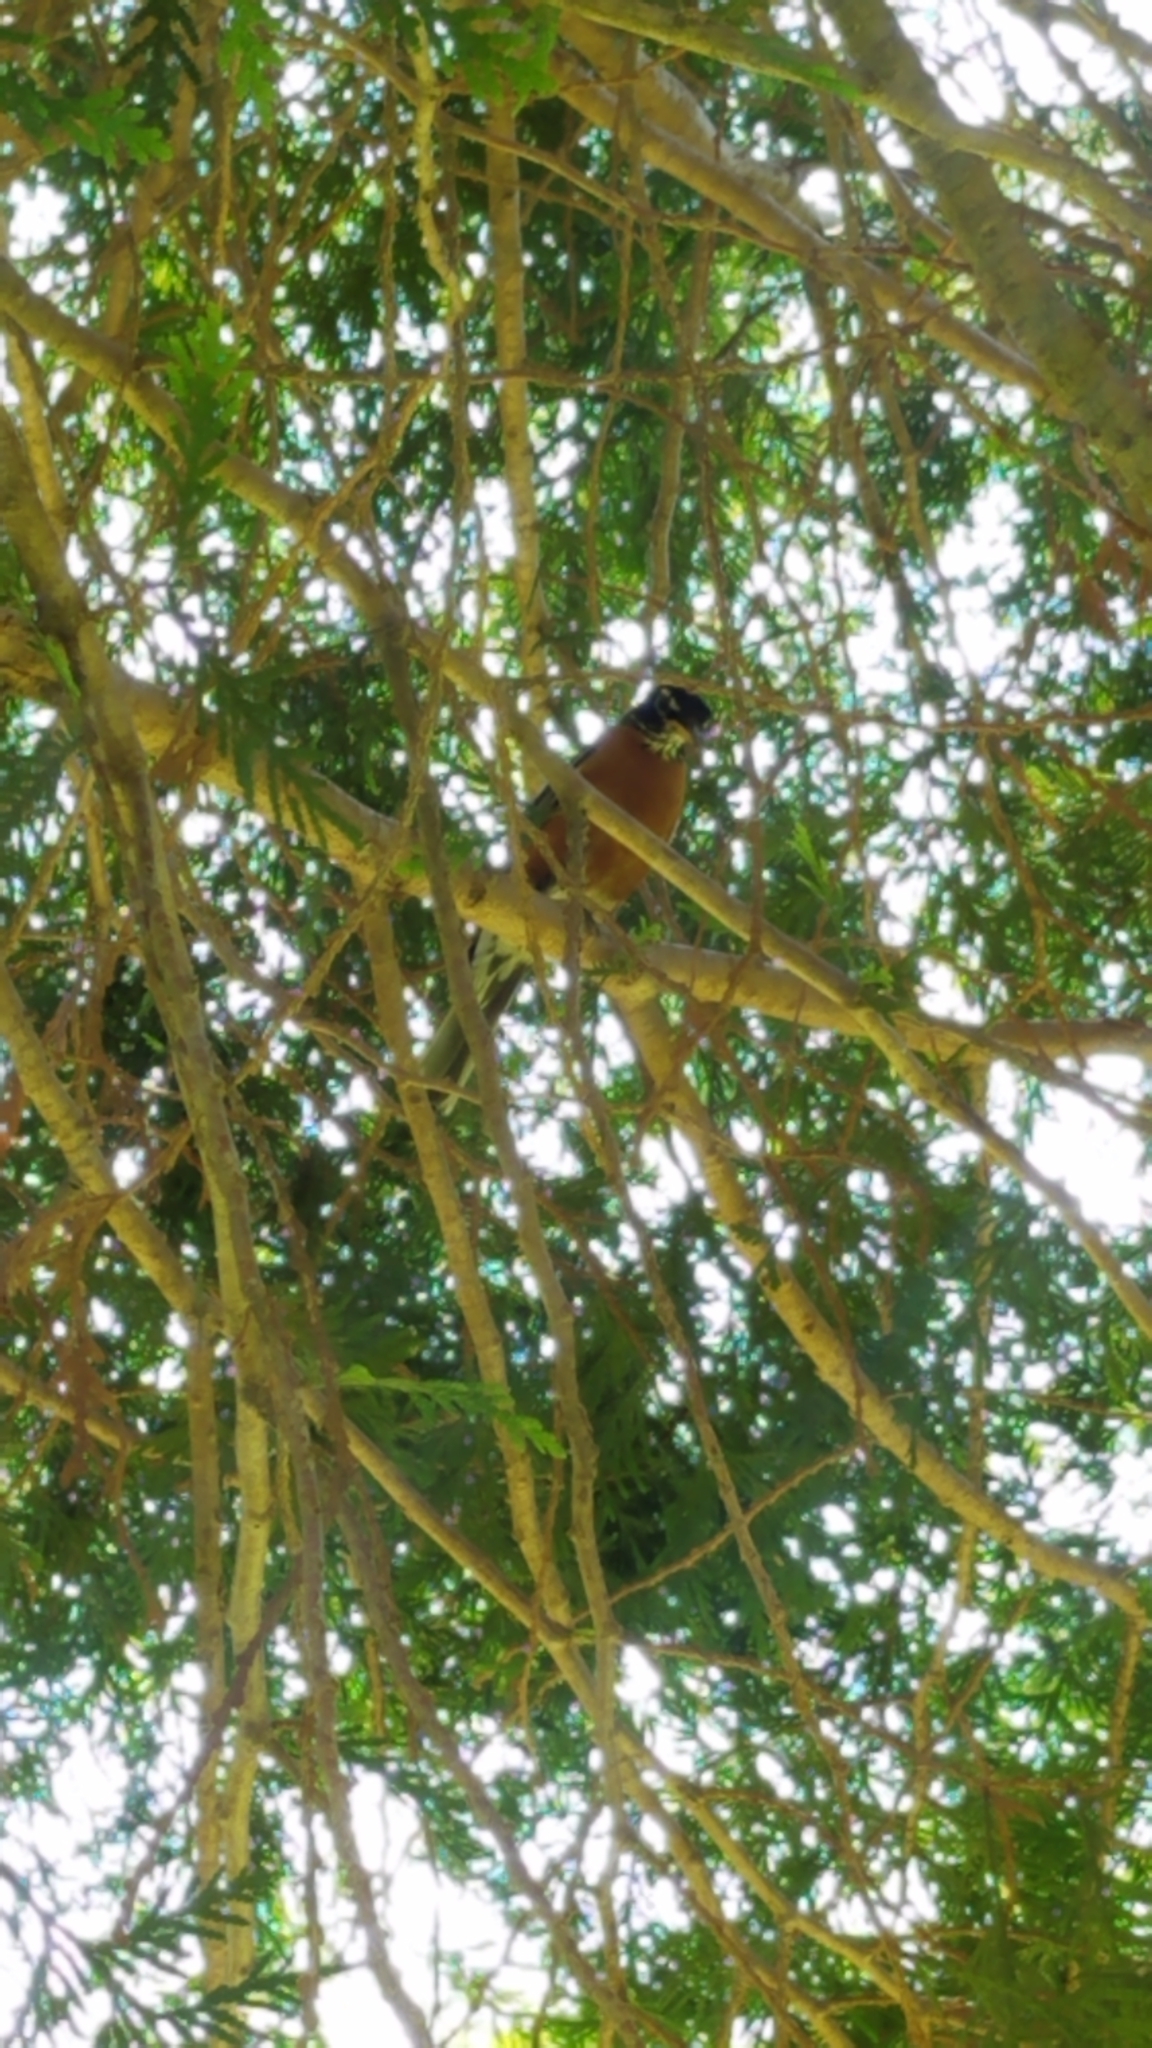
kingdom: Animalia
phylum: Chordata
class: Aves
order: Passeriformes
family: Turdidae
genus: Turdus
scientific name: Turdus migratorius
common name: American robin
